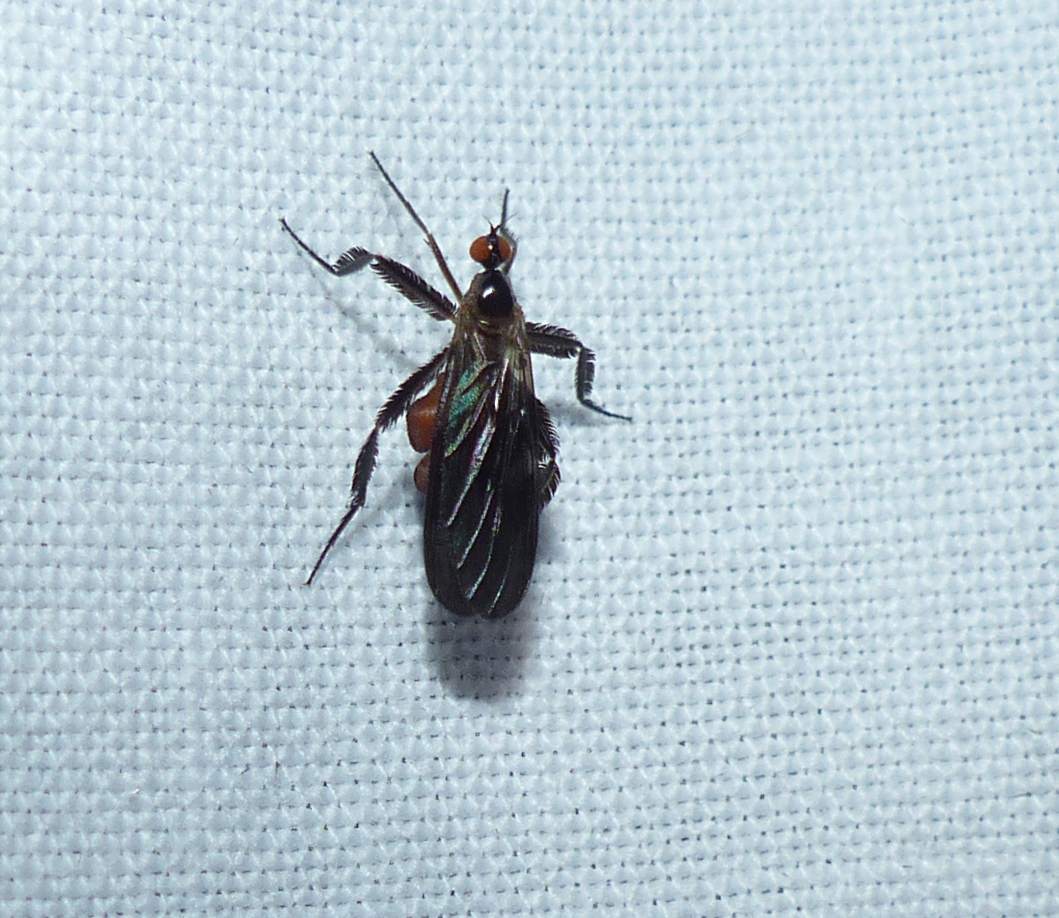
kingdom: Animalia
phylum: Arthropoda
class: Insecta
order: Diptera
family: Empididae
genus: Rhamphomyia
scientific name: Rhamphomyia longicauda
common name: Long-tailed dance fly
